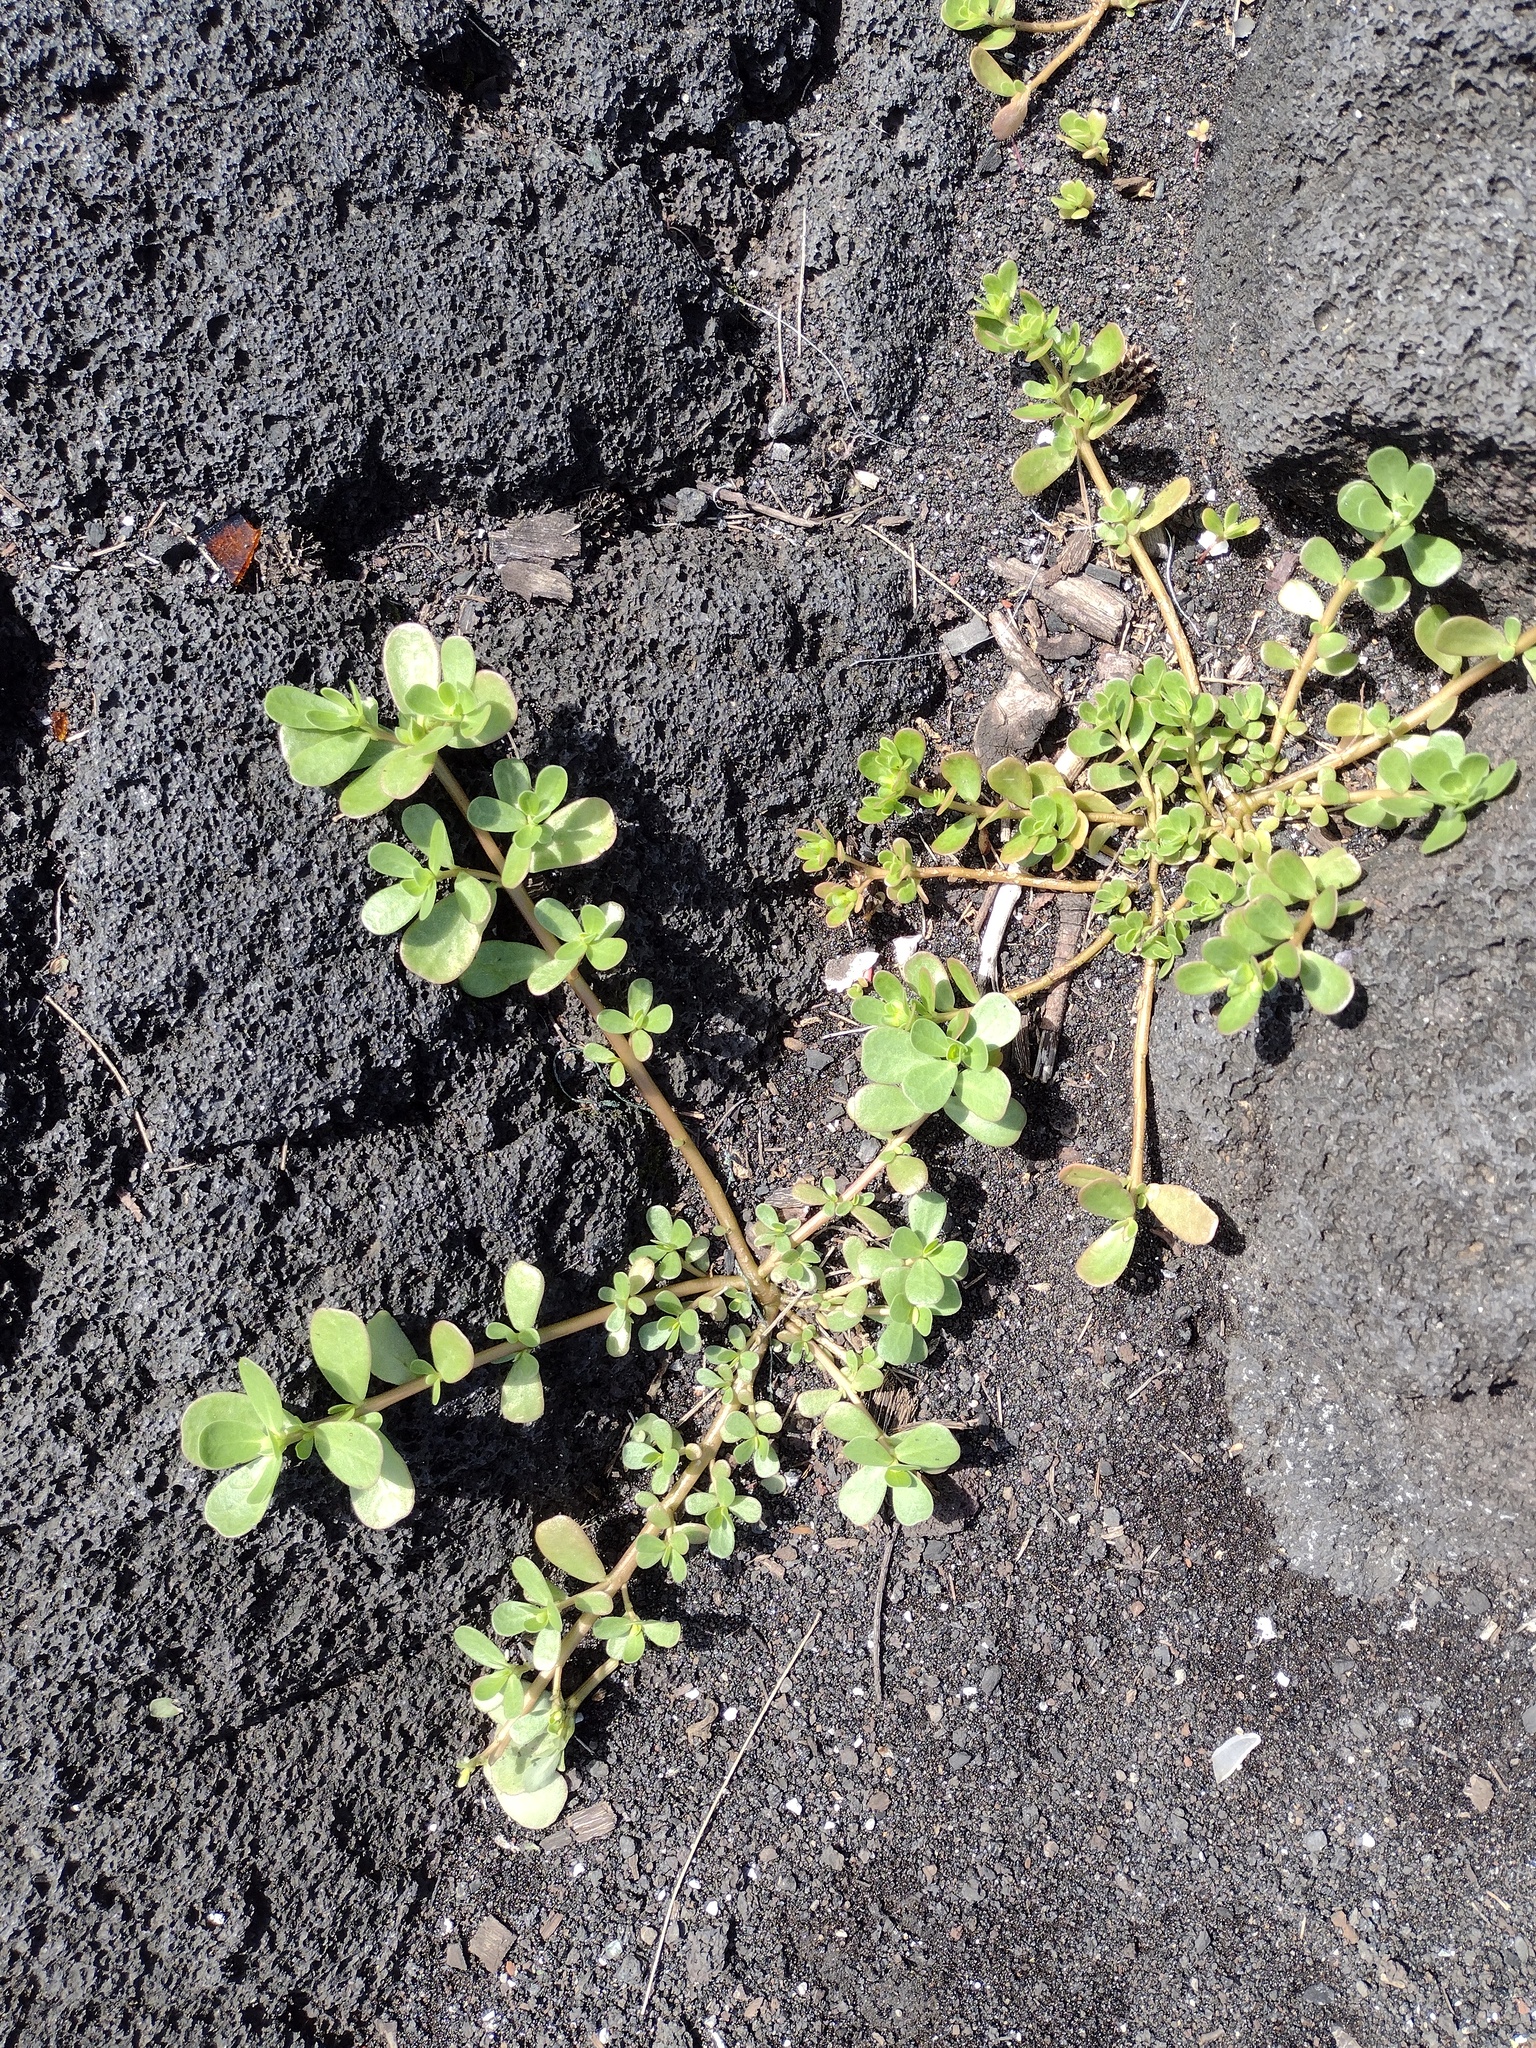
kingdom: Plantae
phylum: Tracheophyta
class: Magnoliopsida
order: Caryophyllales
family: Portulacaceae
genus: Portulaca
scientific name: Portulaca oleracea
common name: Common purslane
